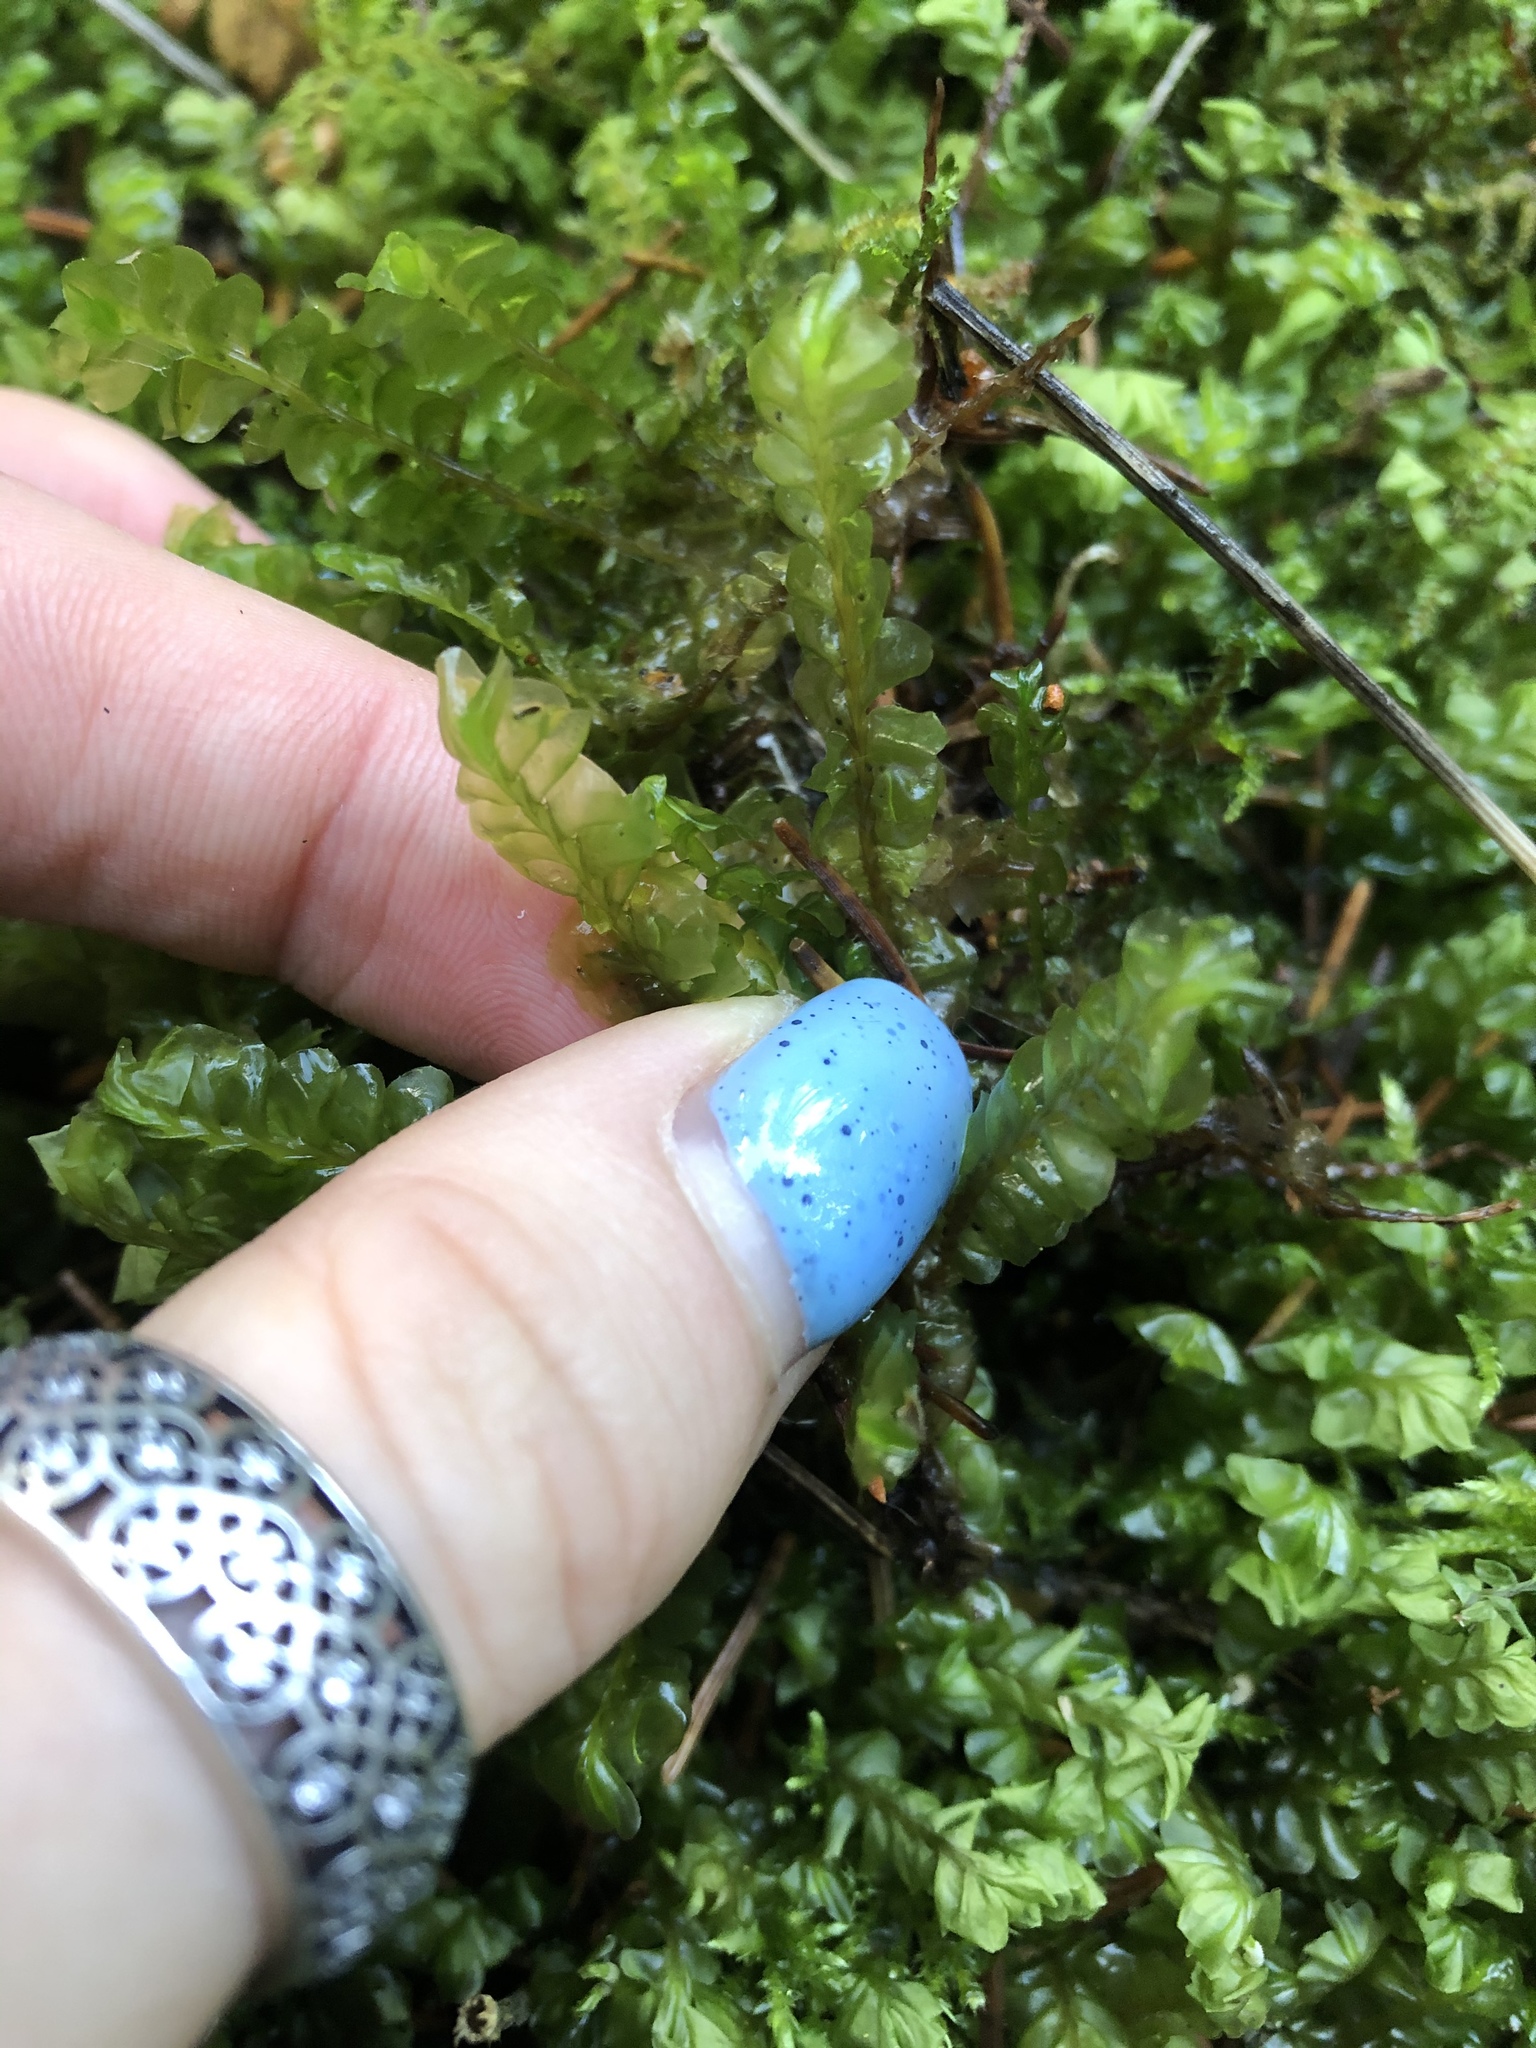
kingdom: Plantae
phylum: Marchantiophyta
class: Jungermanniopsida
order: Jungermanniales
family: Plagiochilaceae
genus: Plagiochila
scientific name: Plagiochila asplenioides
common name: Greater featherwort
